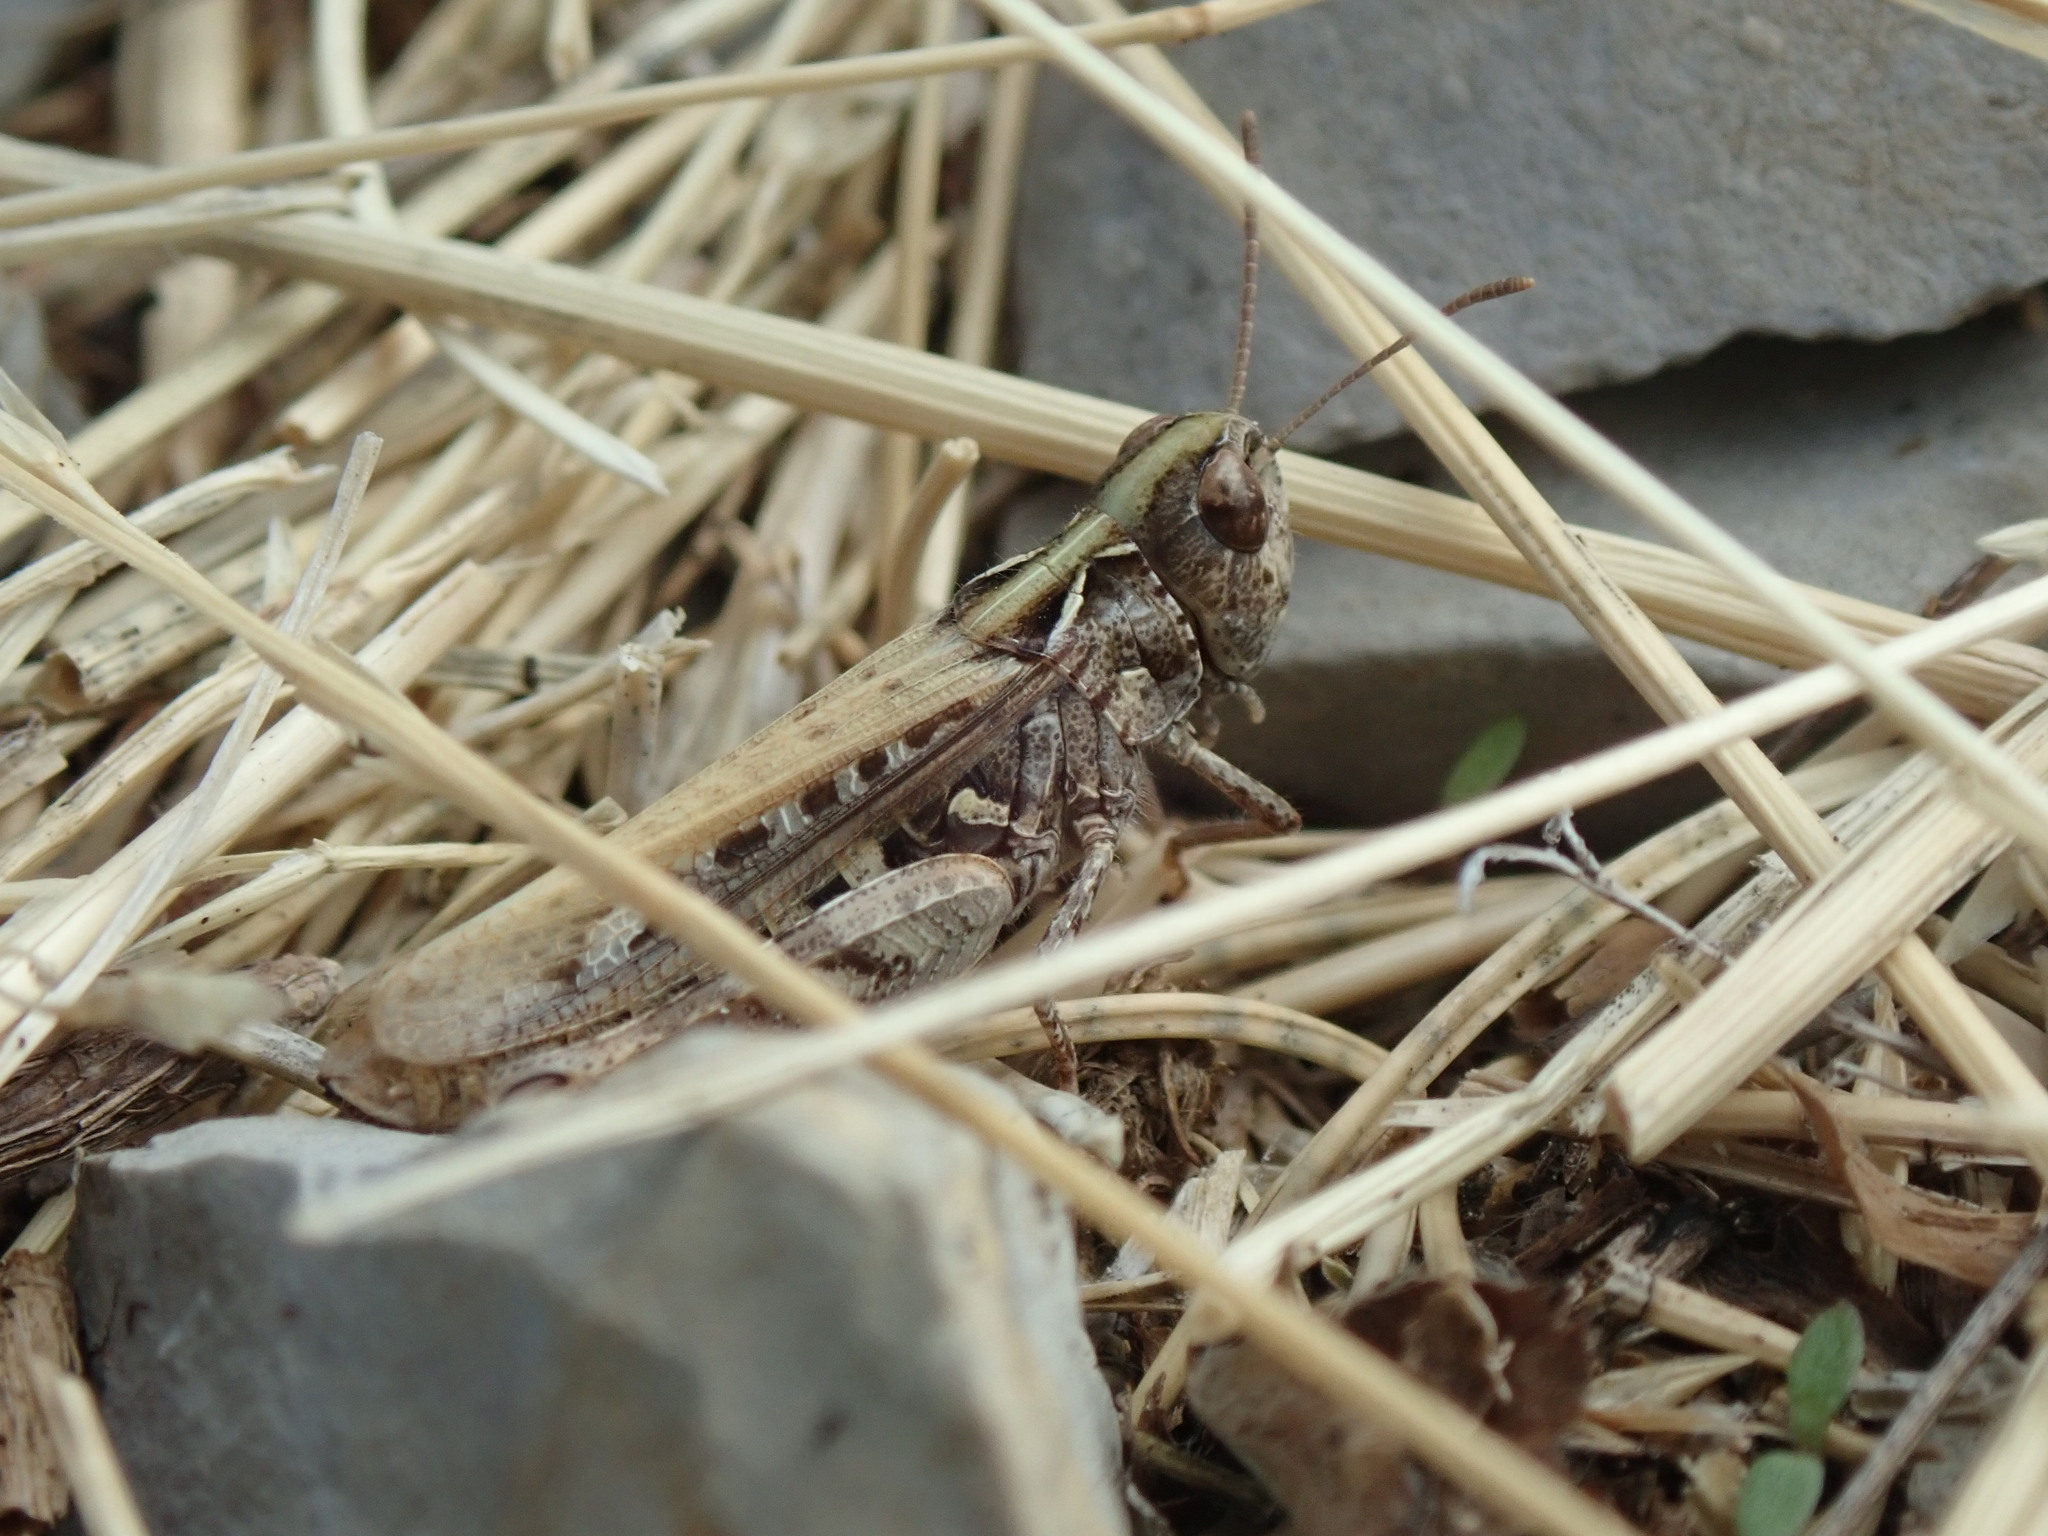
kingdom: Animalia
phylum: Arthropoda
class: Insecta
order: Orthoptera
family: Acrididae
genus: Myrmeleotettix
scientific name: Myrmeleotettix maculatus
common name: Mottled grasshopper
